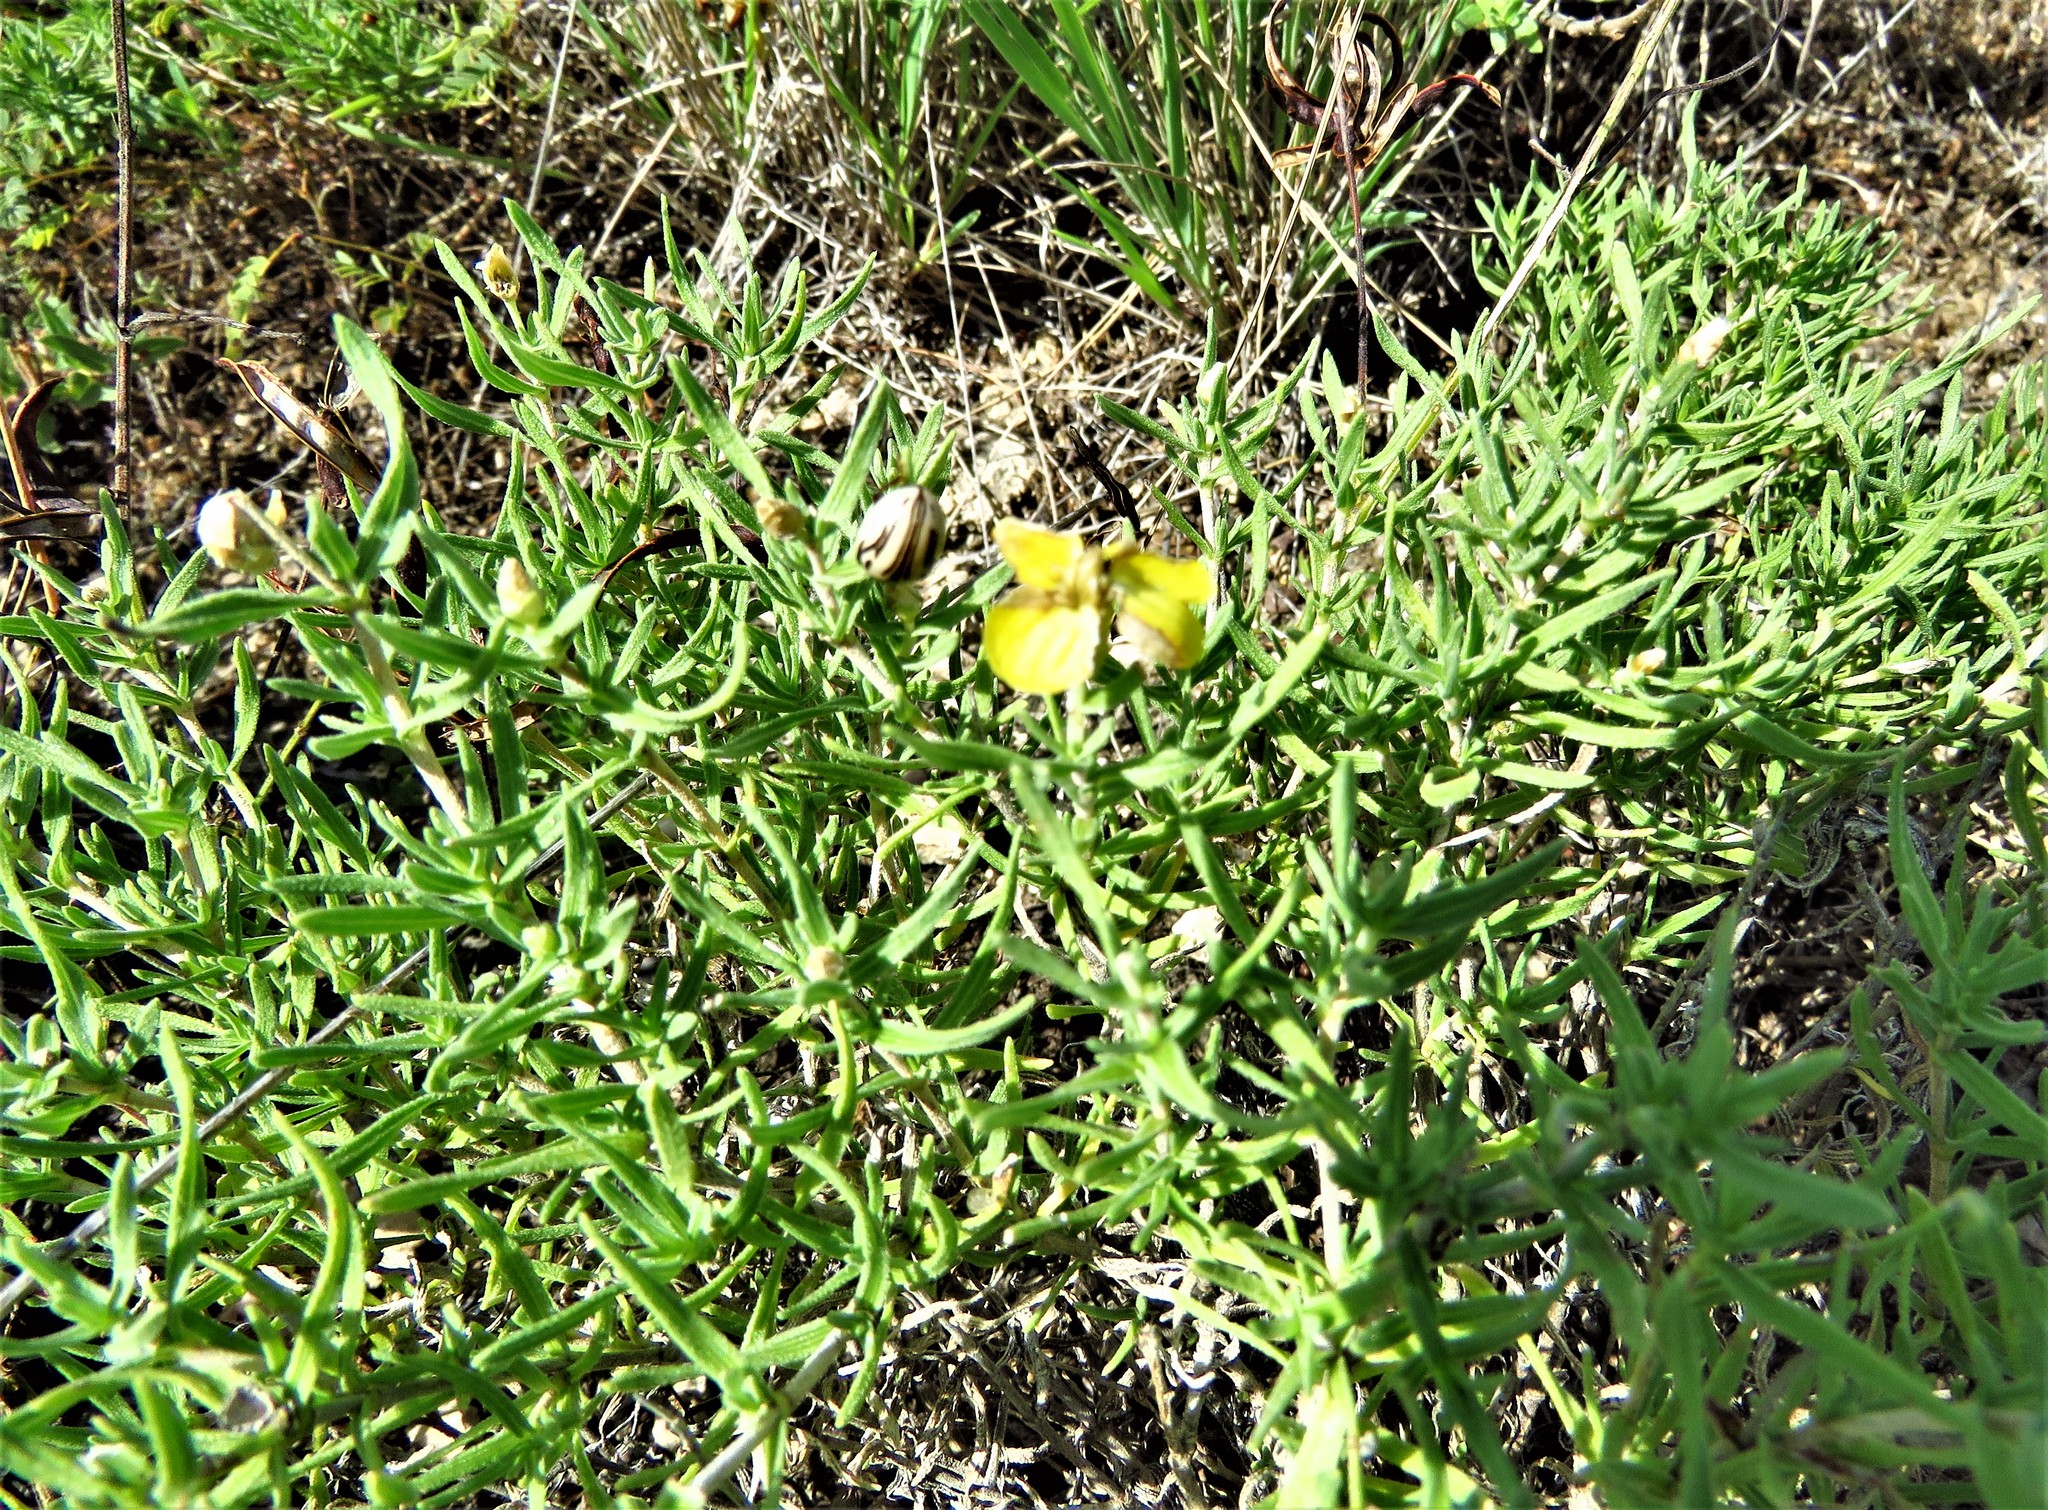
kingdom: Plantae
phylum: Tracheophyta
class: Magnoliopsida
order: Asterales
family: Asteraceae
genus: Zinnia
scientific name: Zinnia grandiflora
